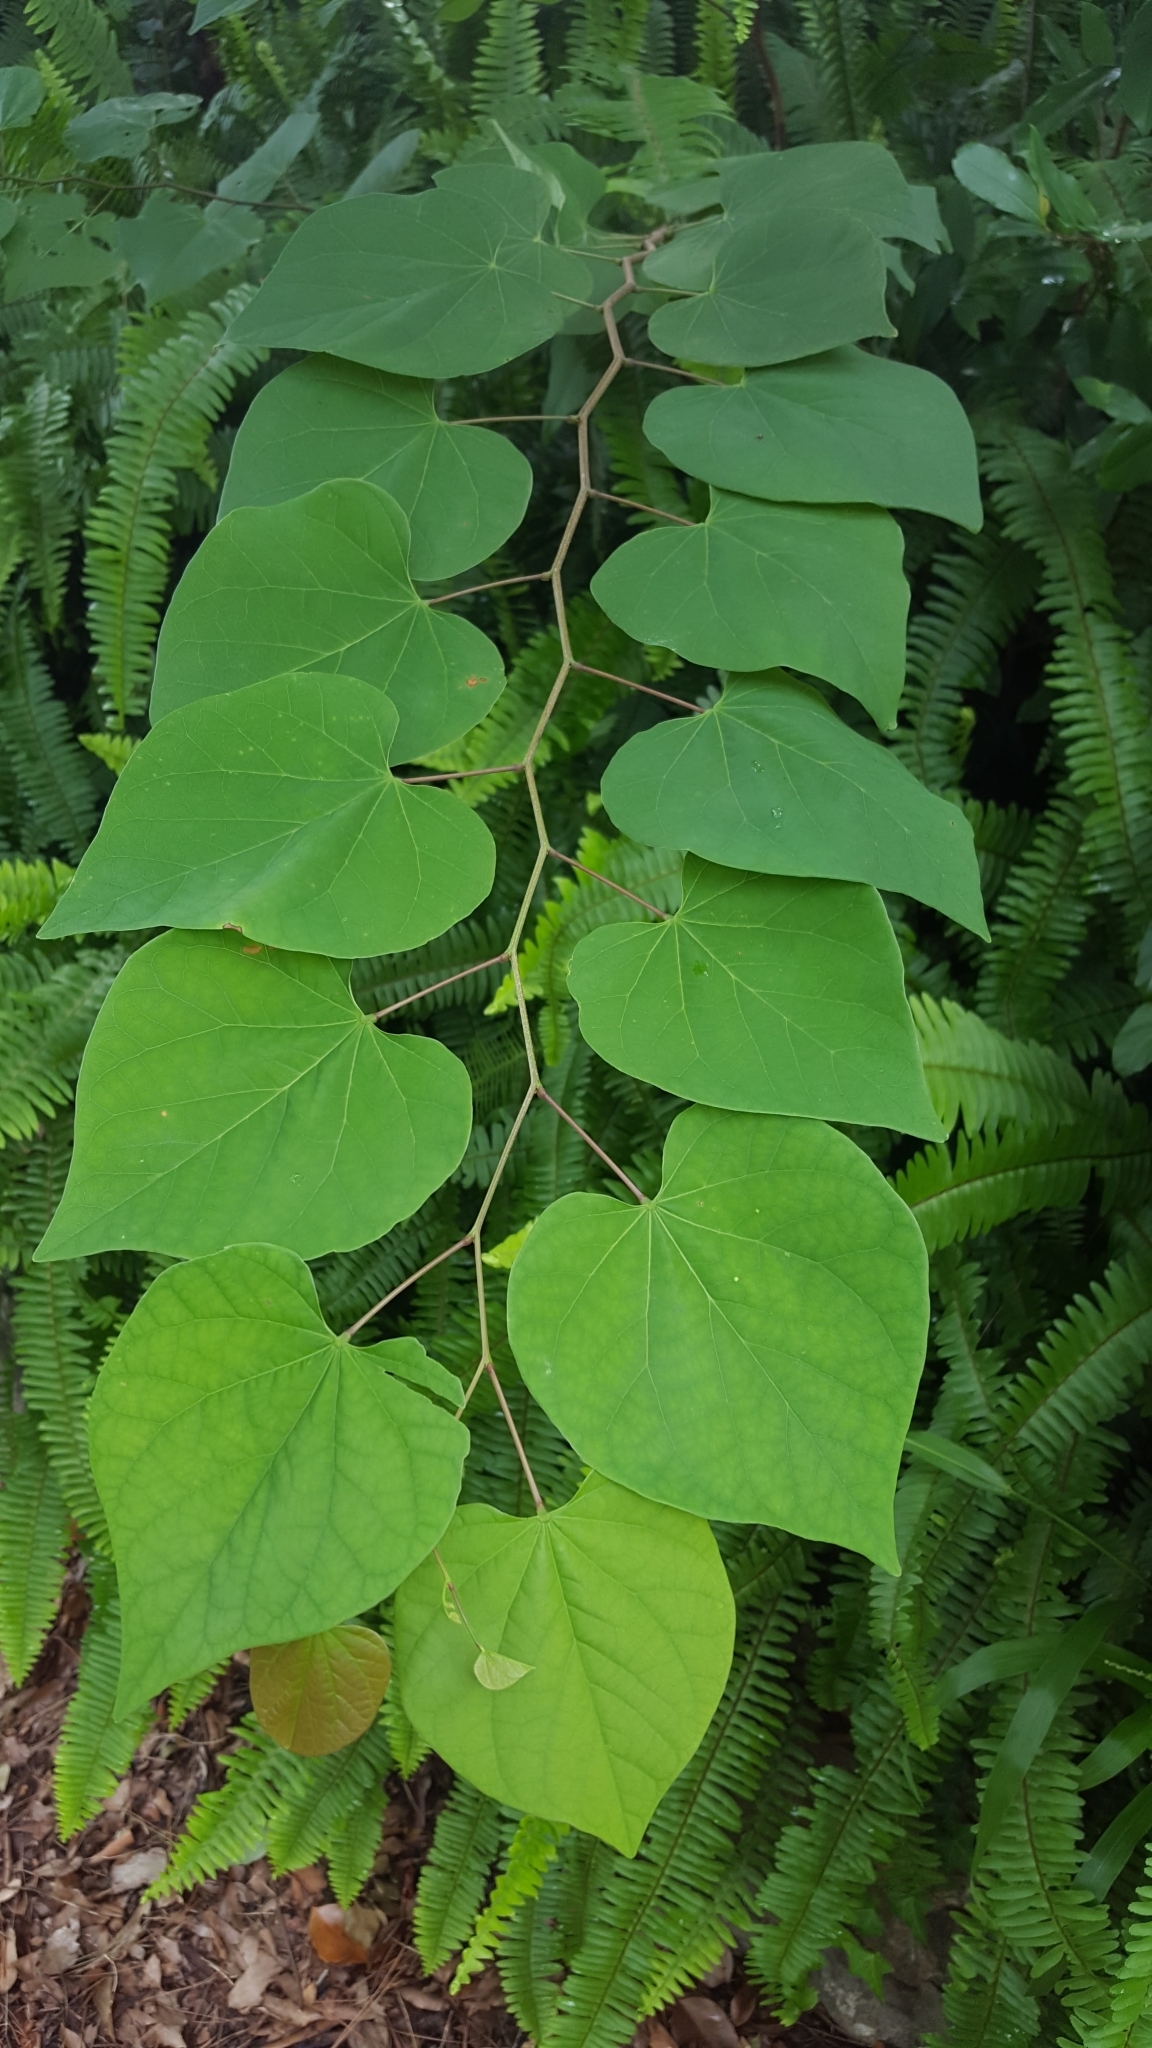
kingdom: Plantae
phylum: Tracheophyta
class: Magnoliopsida
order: Fabales
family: Fabaceae
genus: Cercis
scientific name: Cercis canadensis
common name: Eastern redbud
